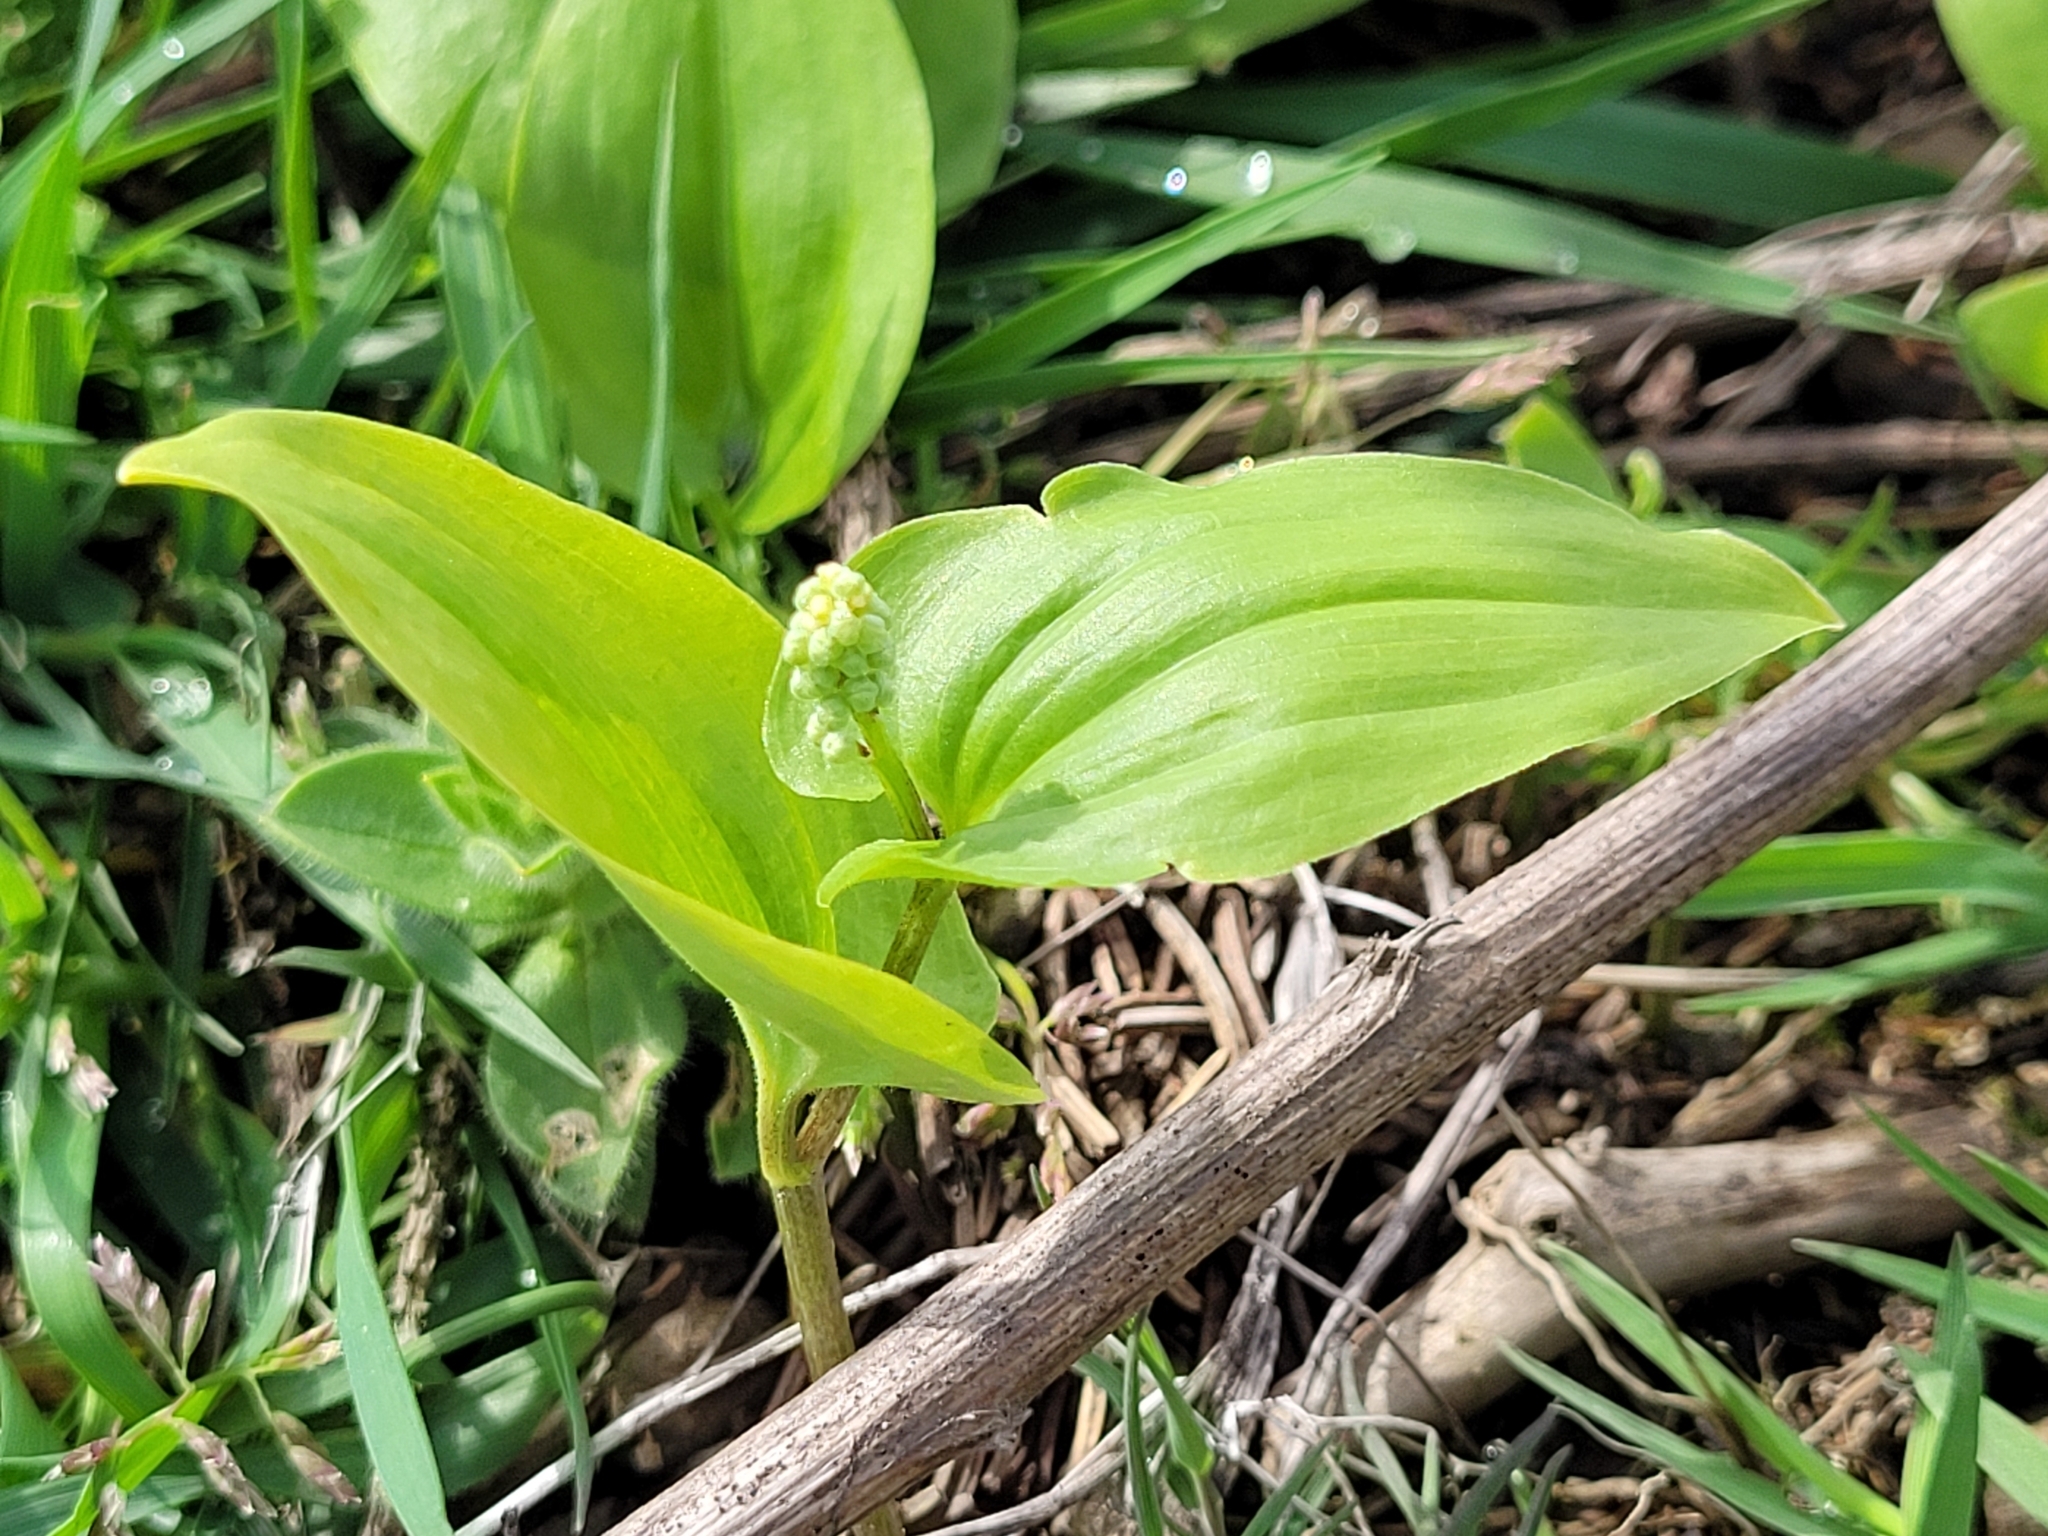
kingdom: Plantae
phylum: Tracheophyta
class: Liliopsida
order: Asparagales
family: Asparagaceae
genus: Maianthemum
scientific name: Maianthemum bifolium
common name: May lily
